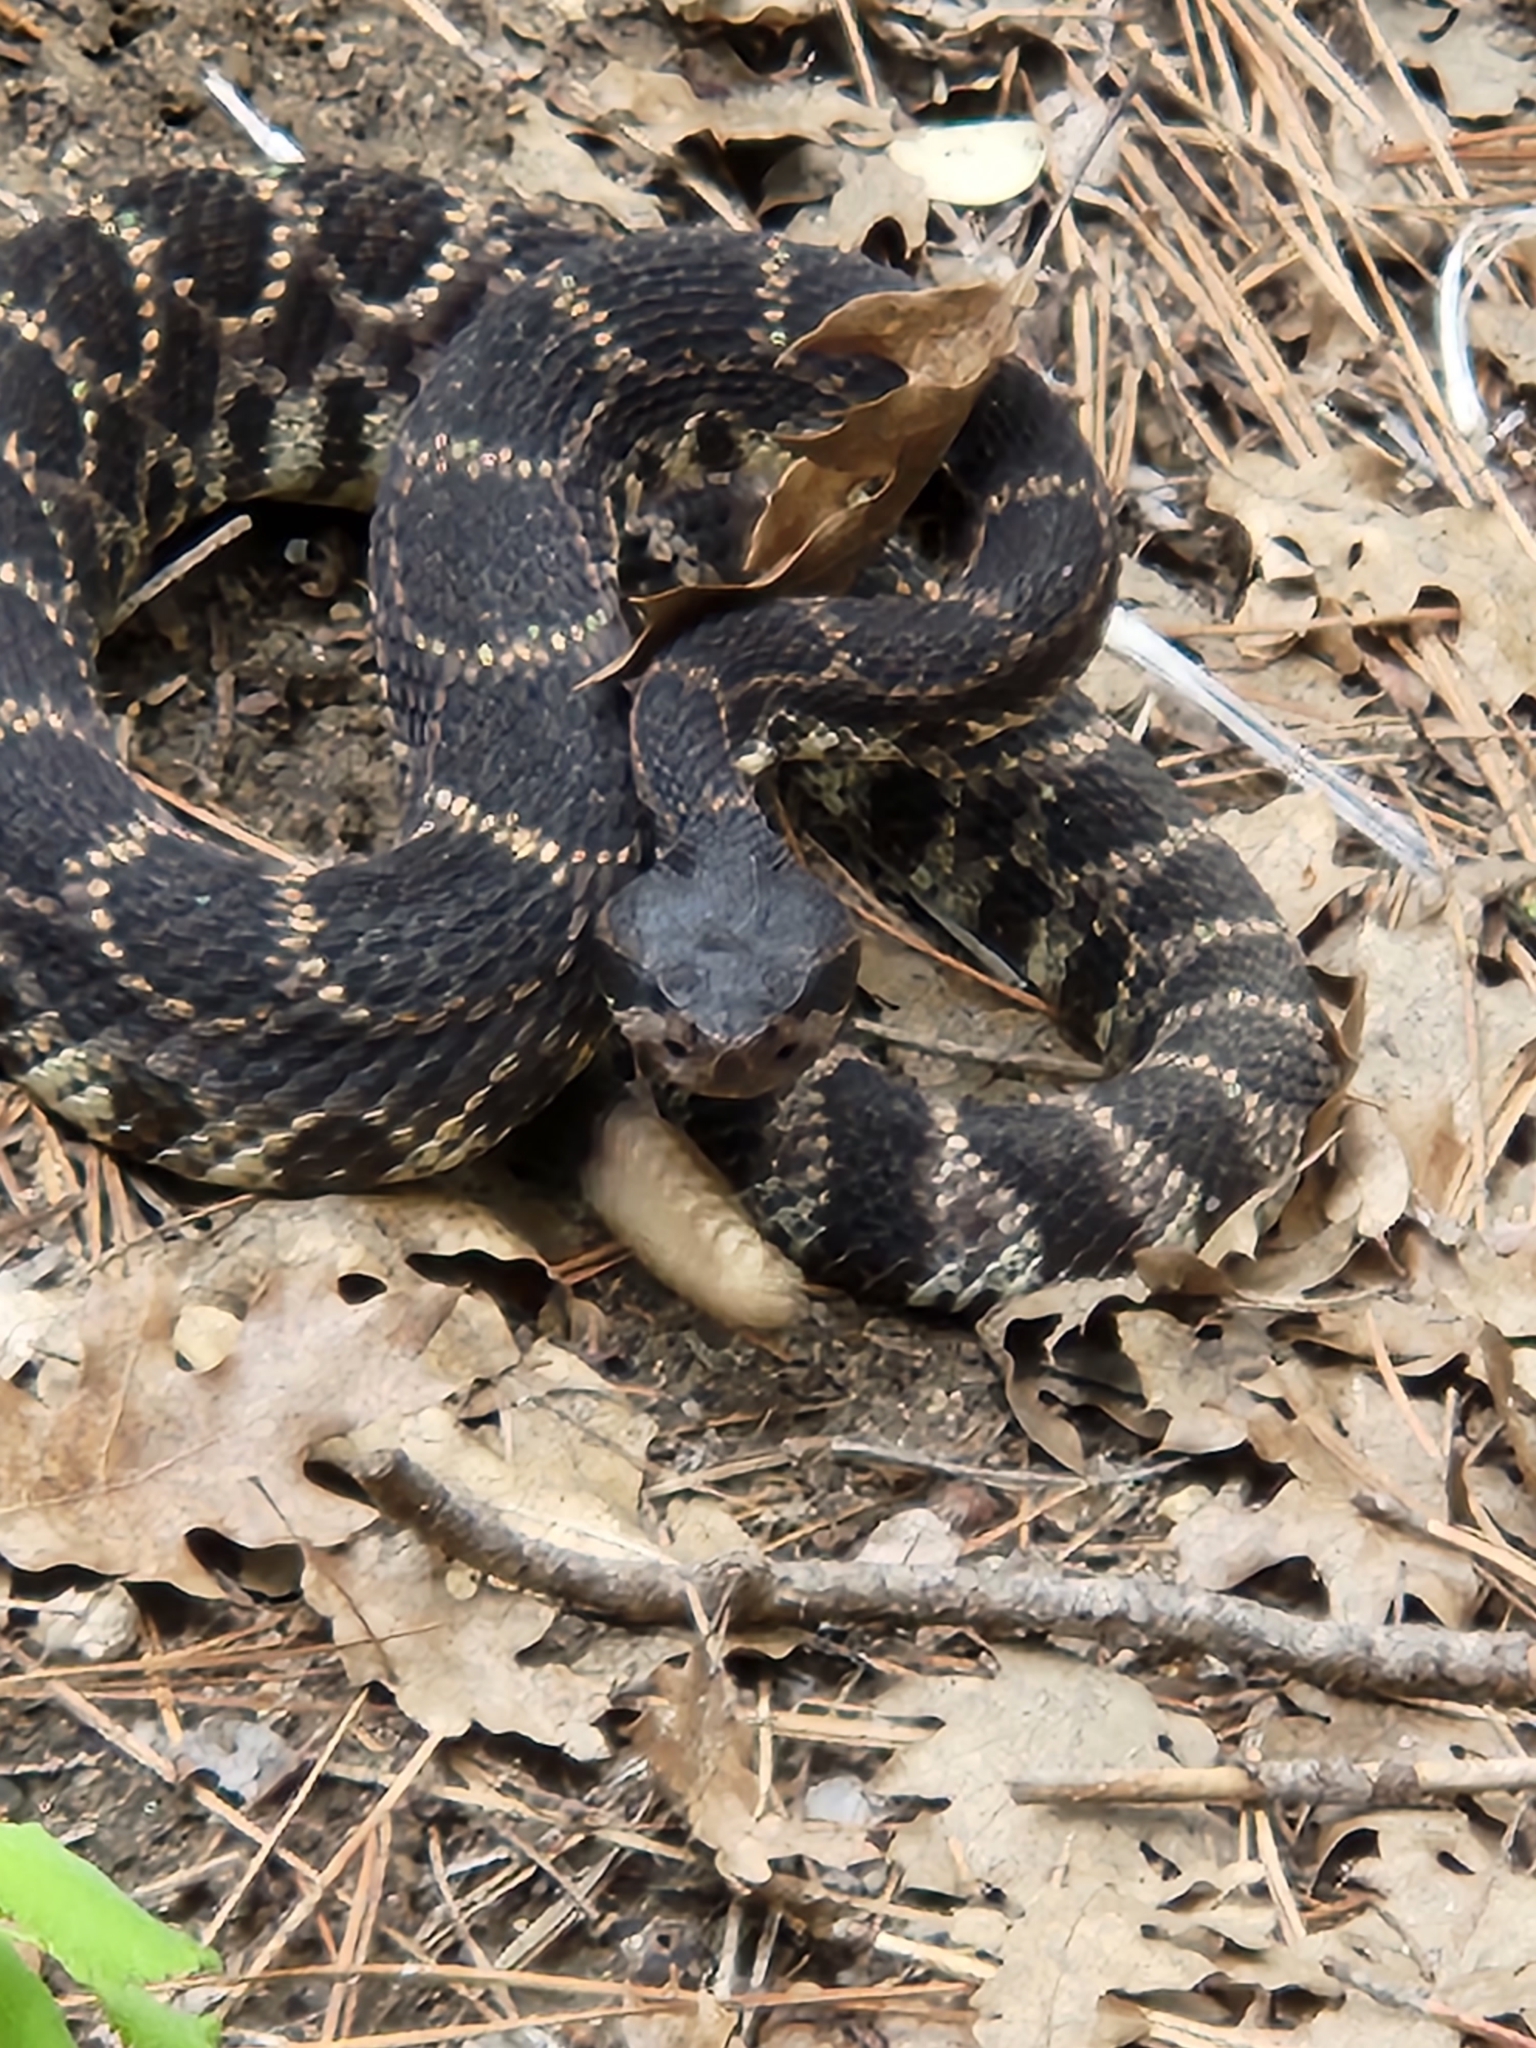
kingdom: Animalia
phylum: Chordata
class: Squamata
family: Viperidae
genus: Crotalus
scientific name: Crotalus oreganus
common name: Abyssus
